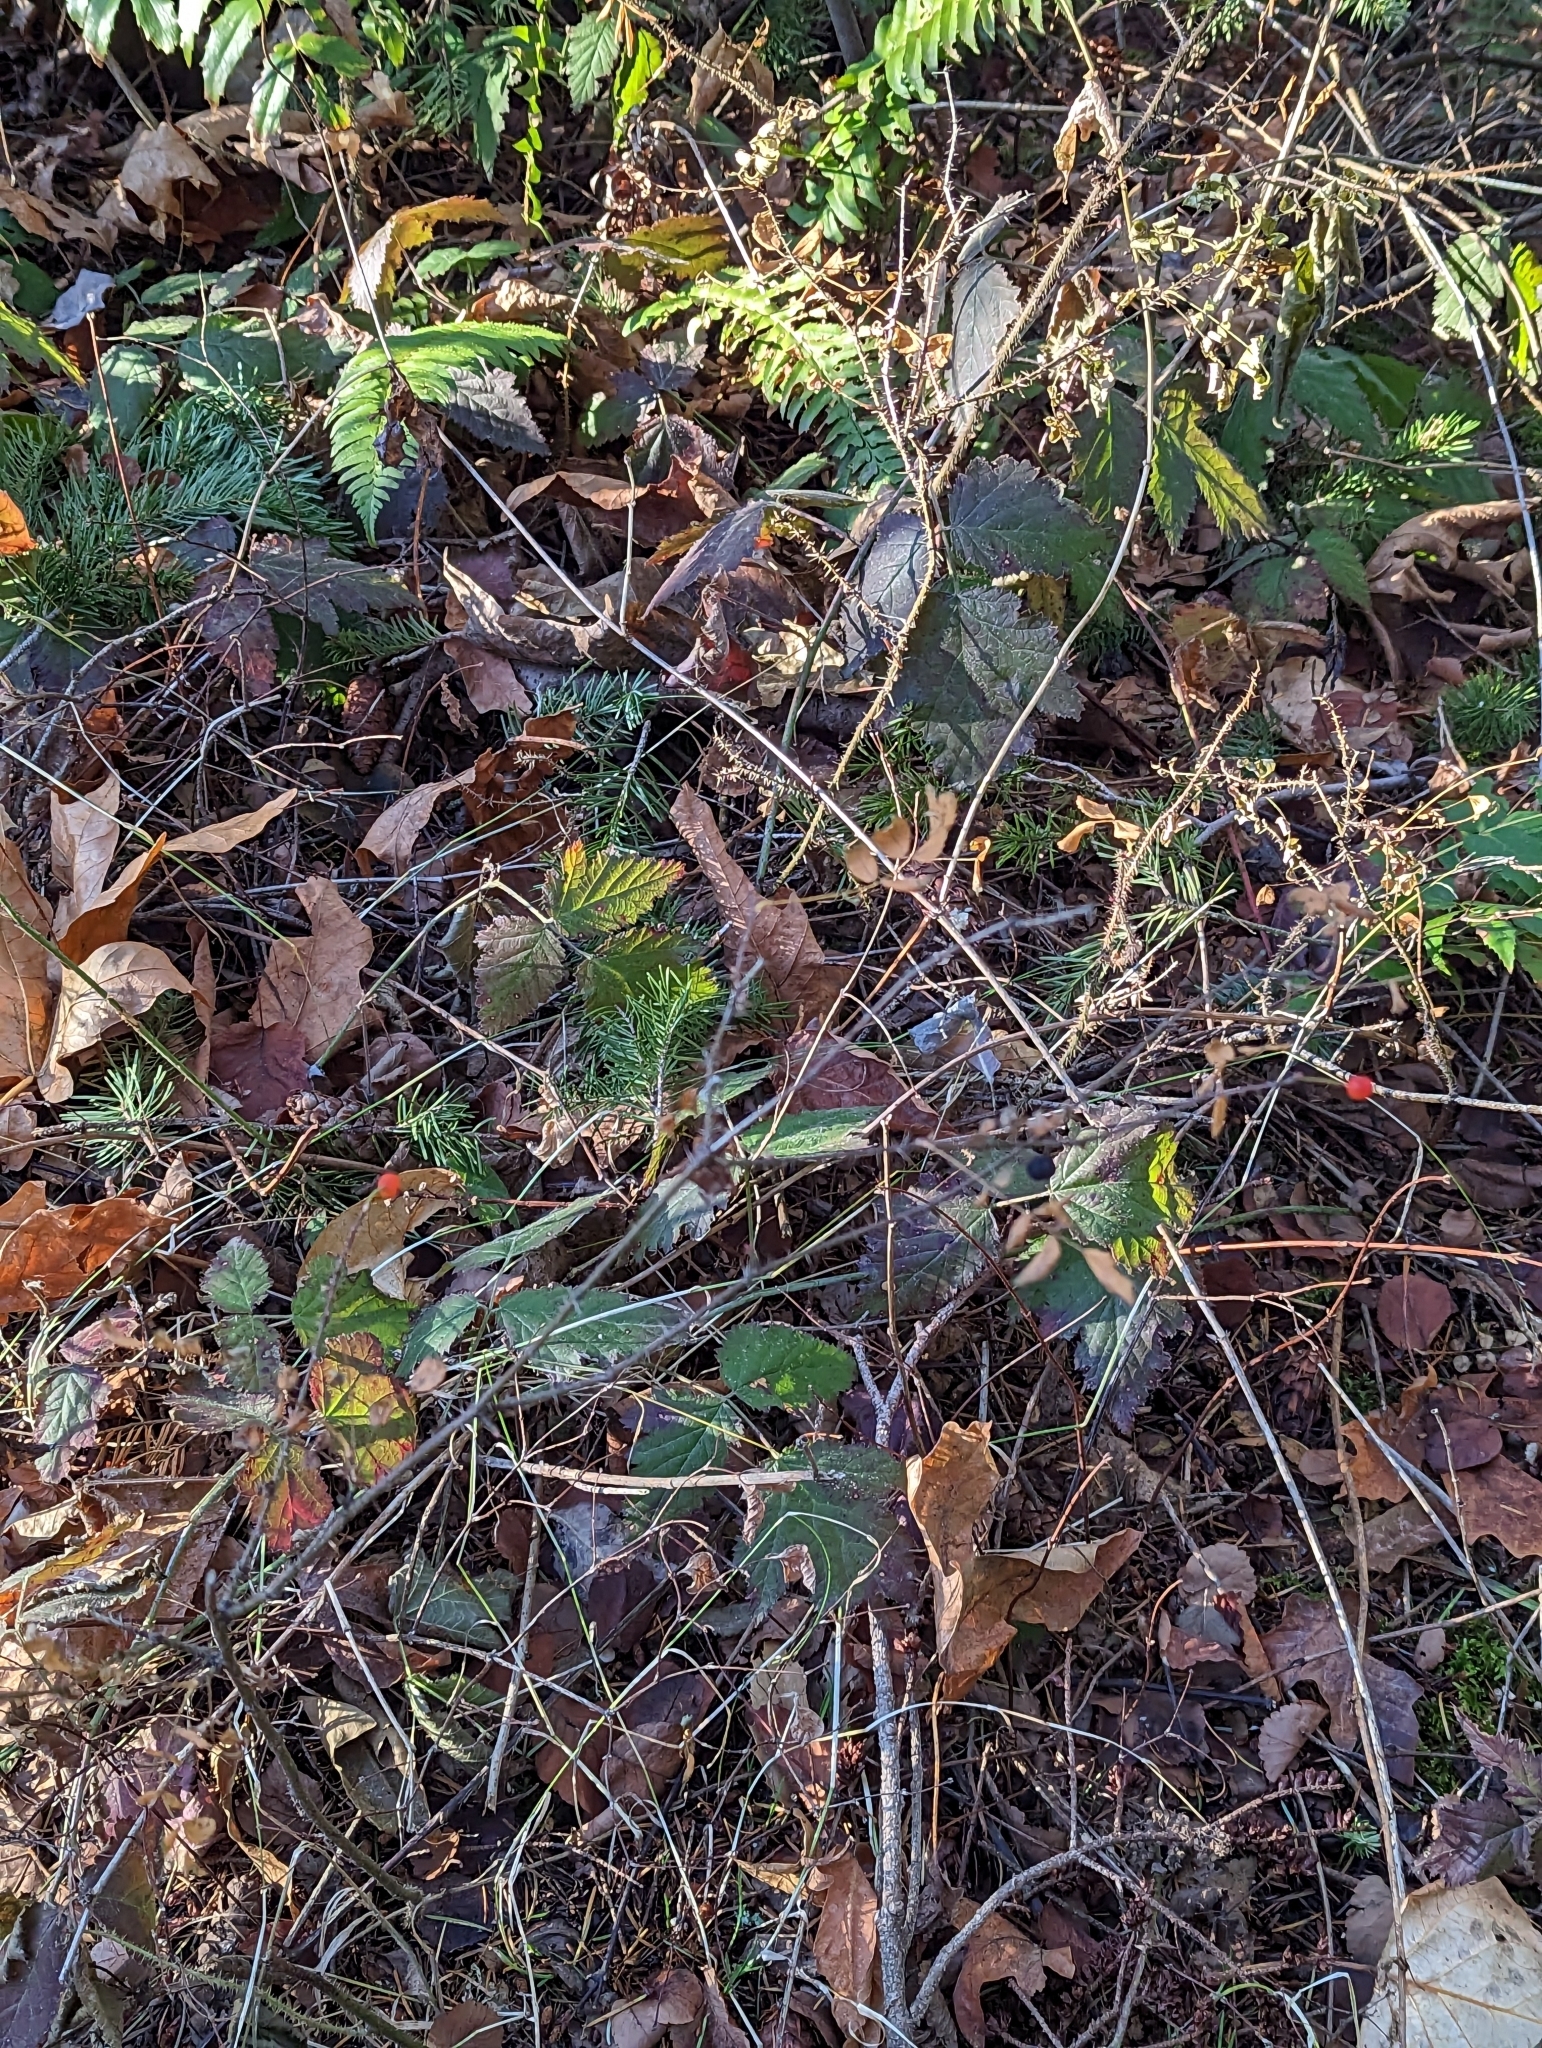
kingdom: Plantae
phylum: Tracheophyta
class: Magnoliopsida
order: Rosales
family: Rosaceae
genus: Rosa
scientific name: Rosa gymnocarpa
